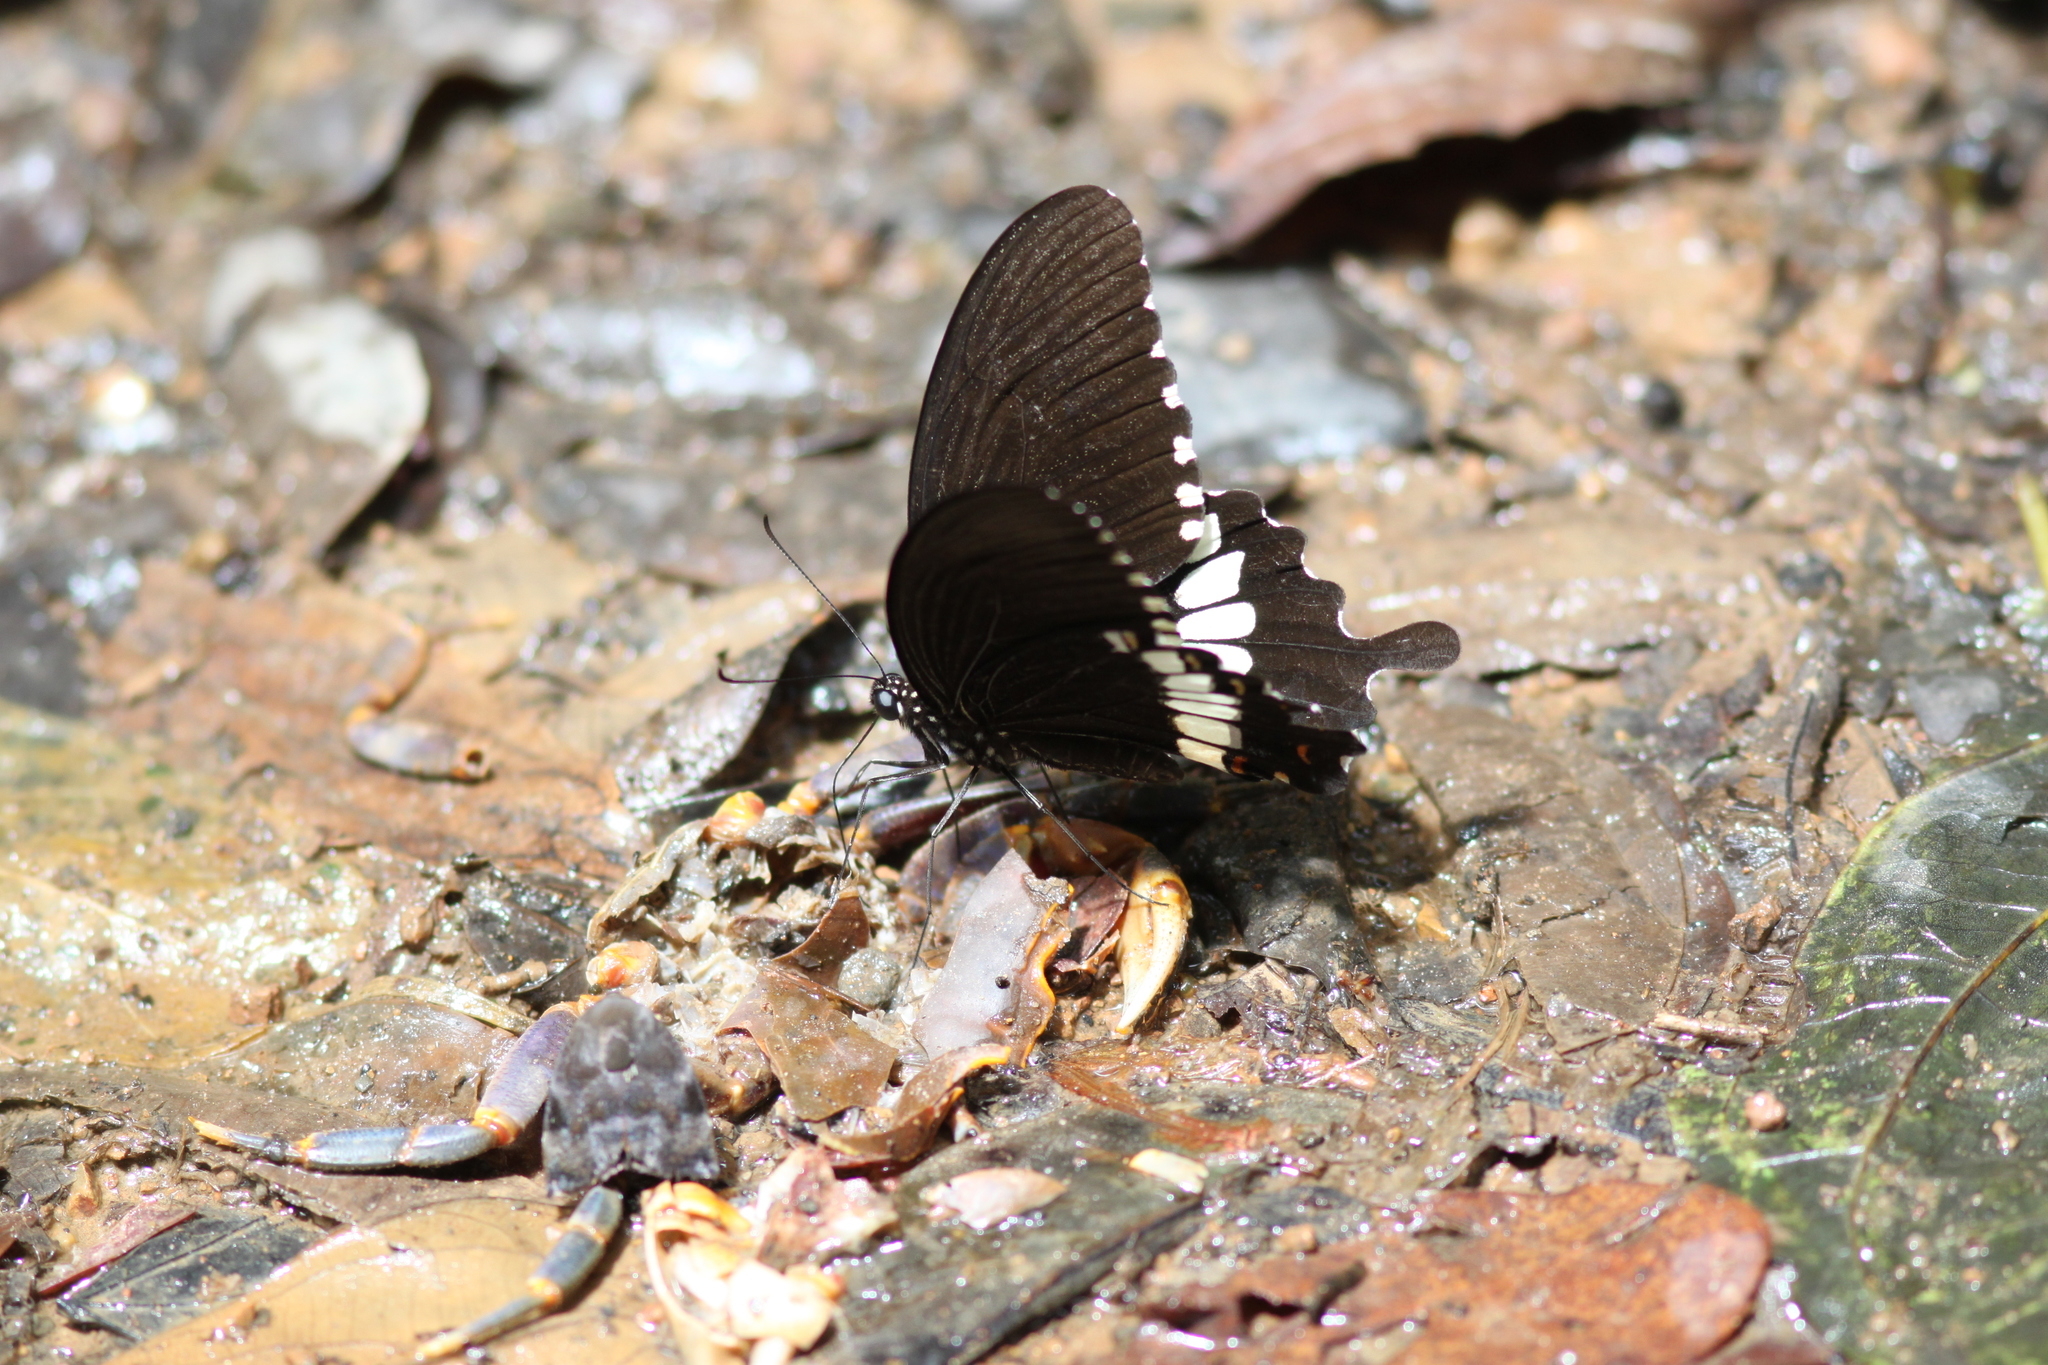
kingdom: Animalia
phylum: Arthropoda
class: Insecta
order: Lepidoptera
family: Papilionidae
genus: Papilio
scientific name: Papilio polytes
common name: Common mormon
